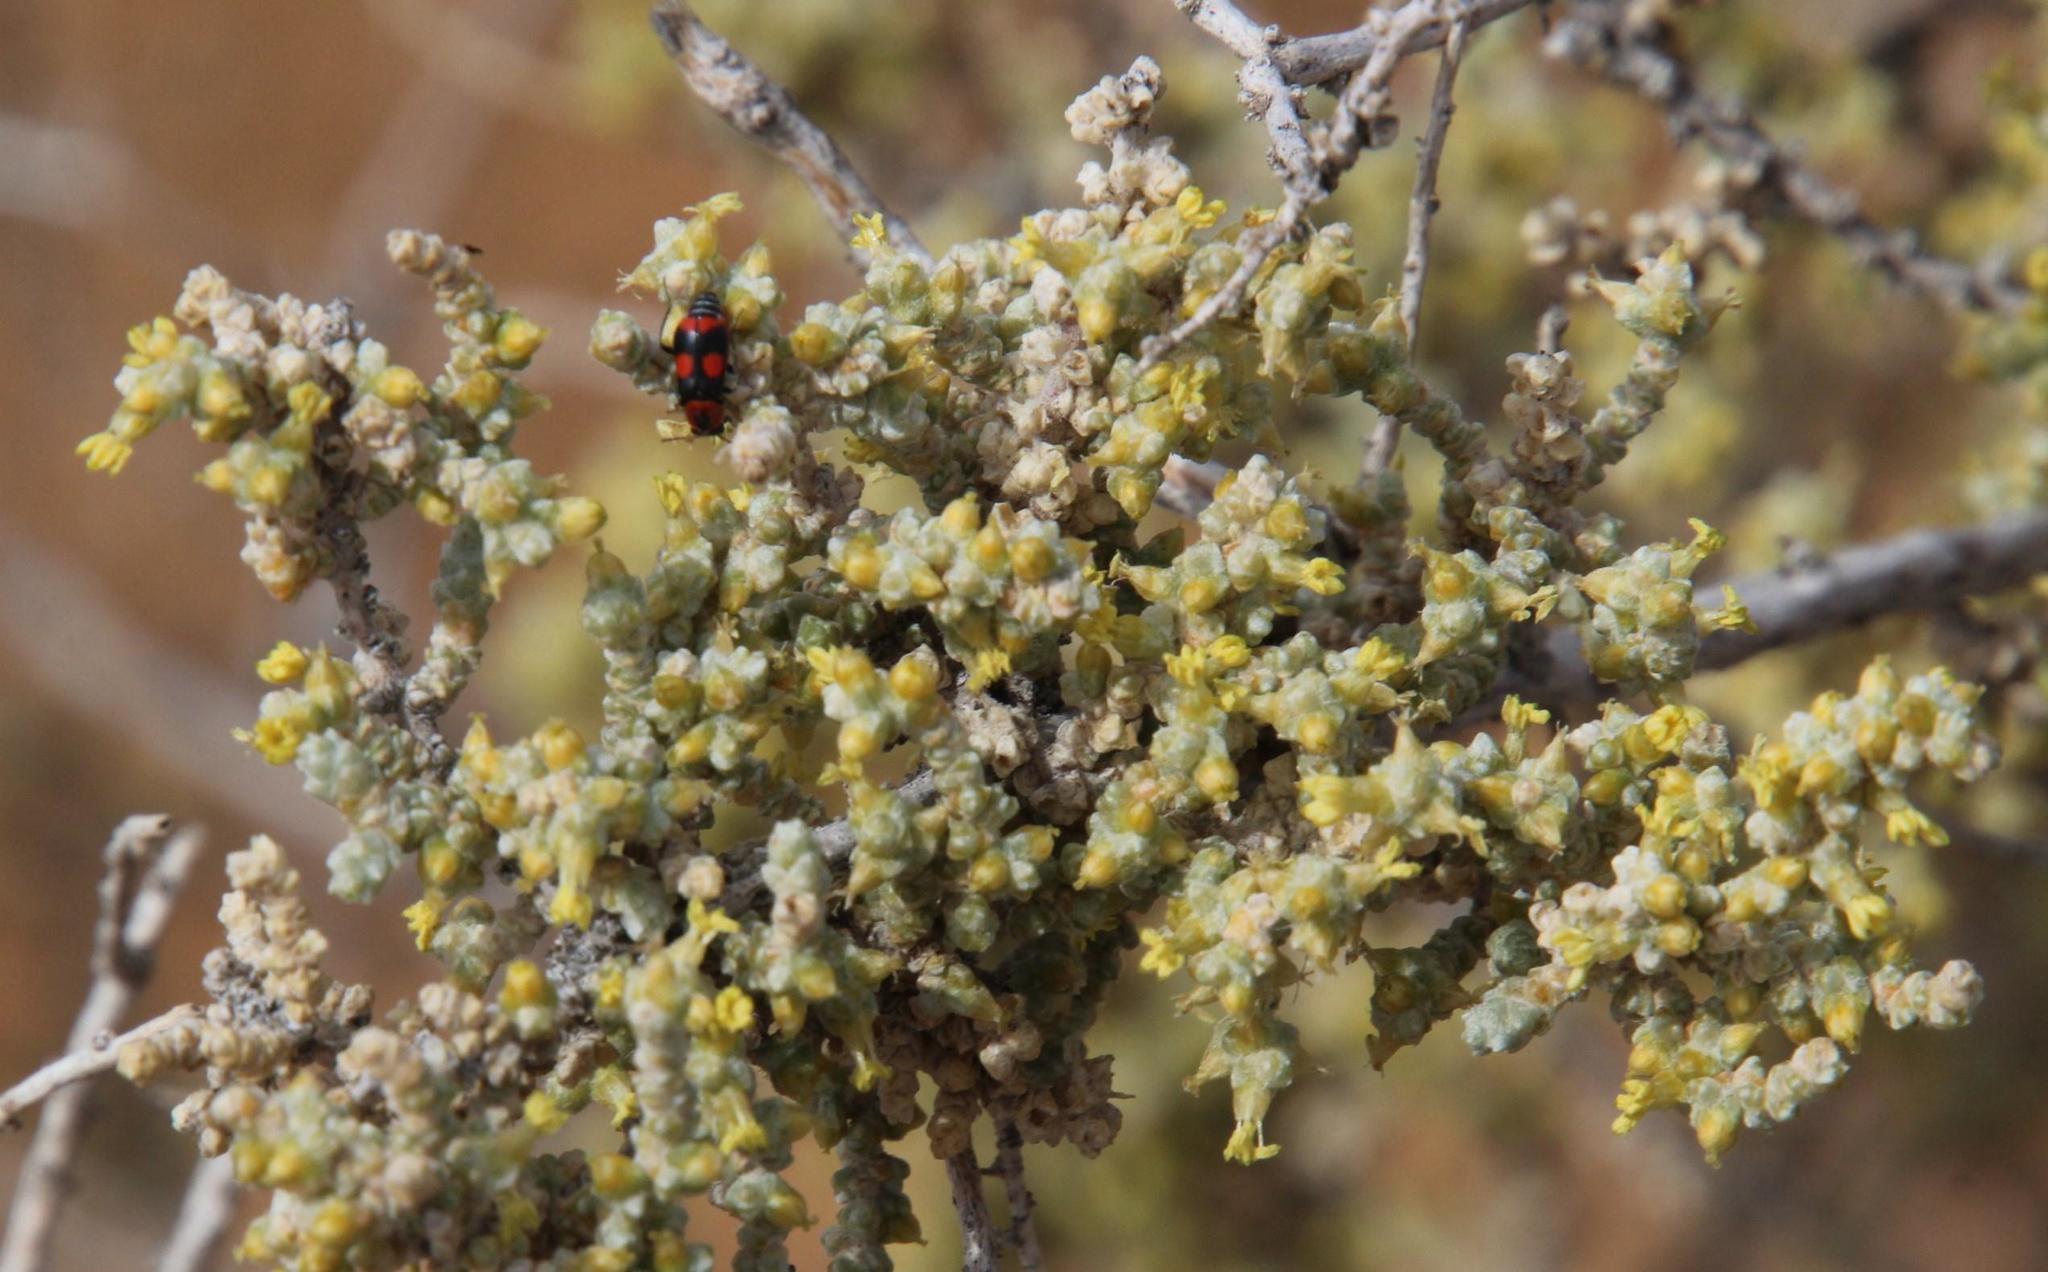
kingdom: Plantae
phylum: Tracheophyta
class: Magnoliopsida
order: Caryophyllales
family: Amaranthaceae
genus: Caroxylon
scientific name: Caroxylon aphyllum
